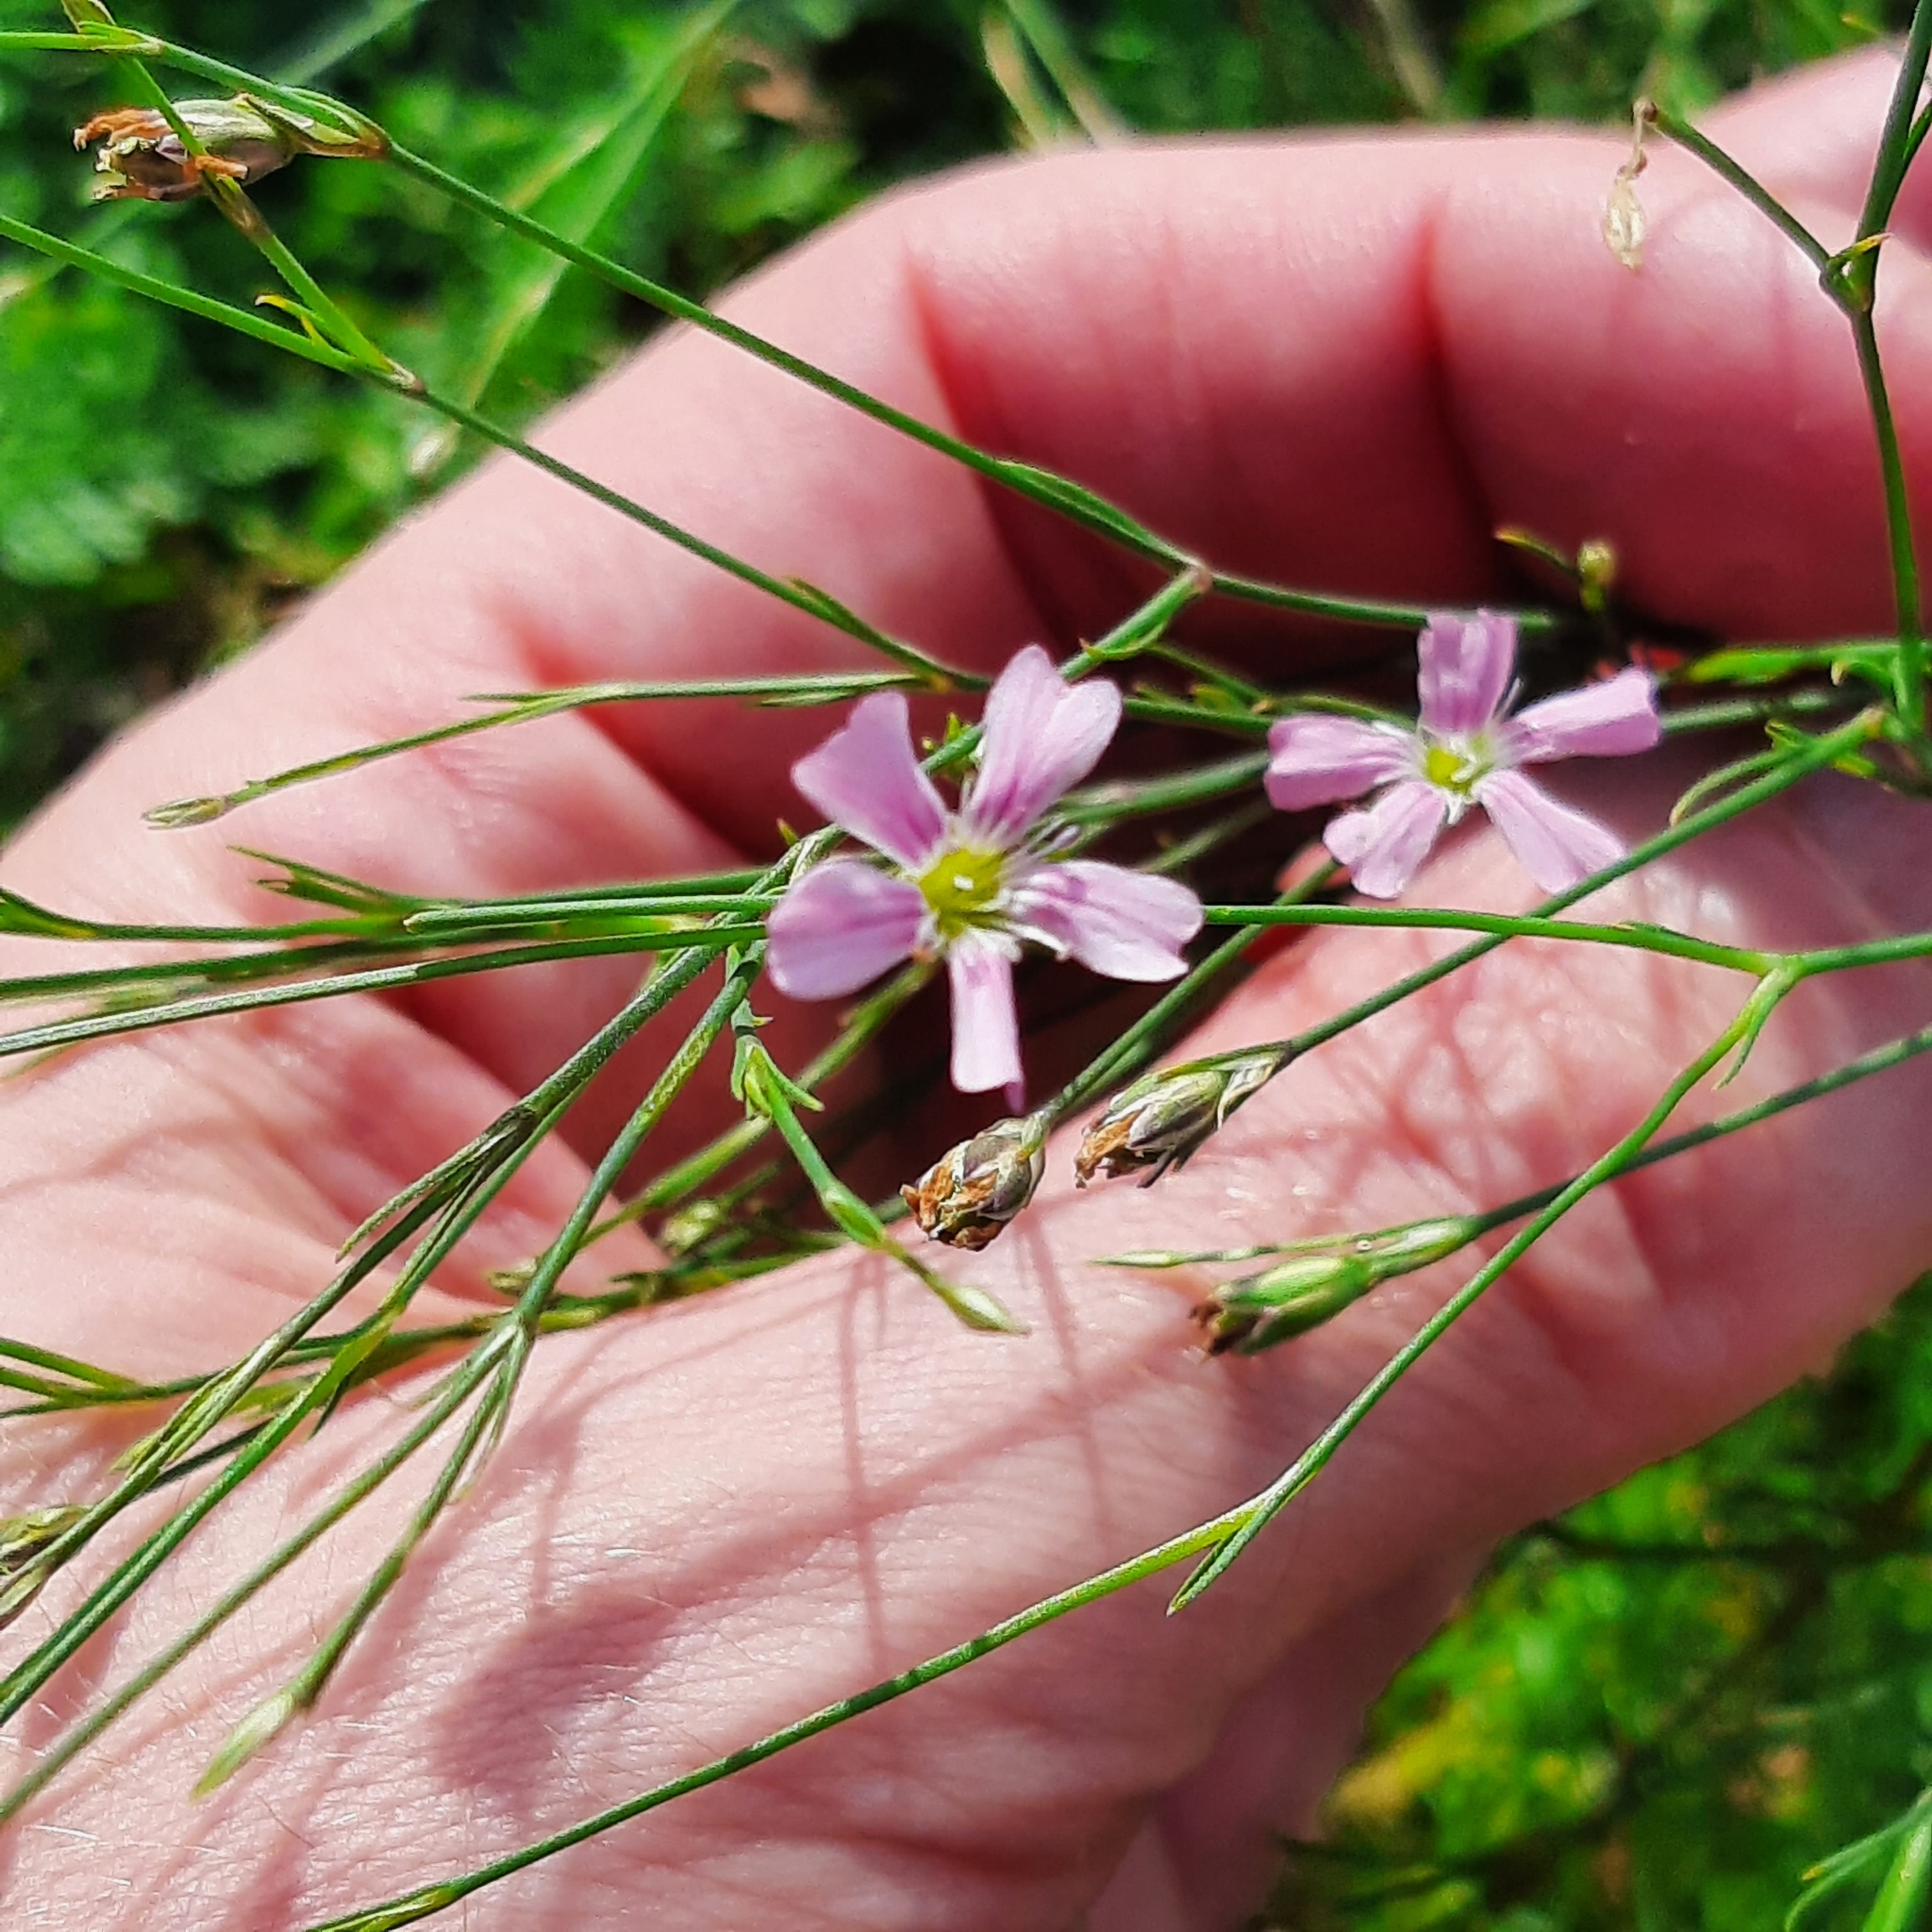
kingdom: Plantae
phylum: Tracheophyta
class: Magnoliopsida
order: Caryophyllales
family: Caryophyllaceae
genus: Petrorhagia
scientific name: Petrorhagia saxifraga
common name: Tunicflower
